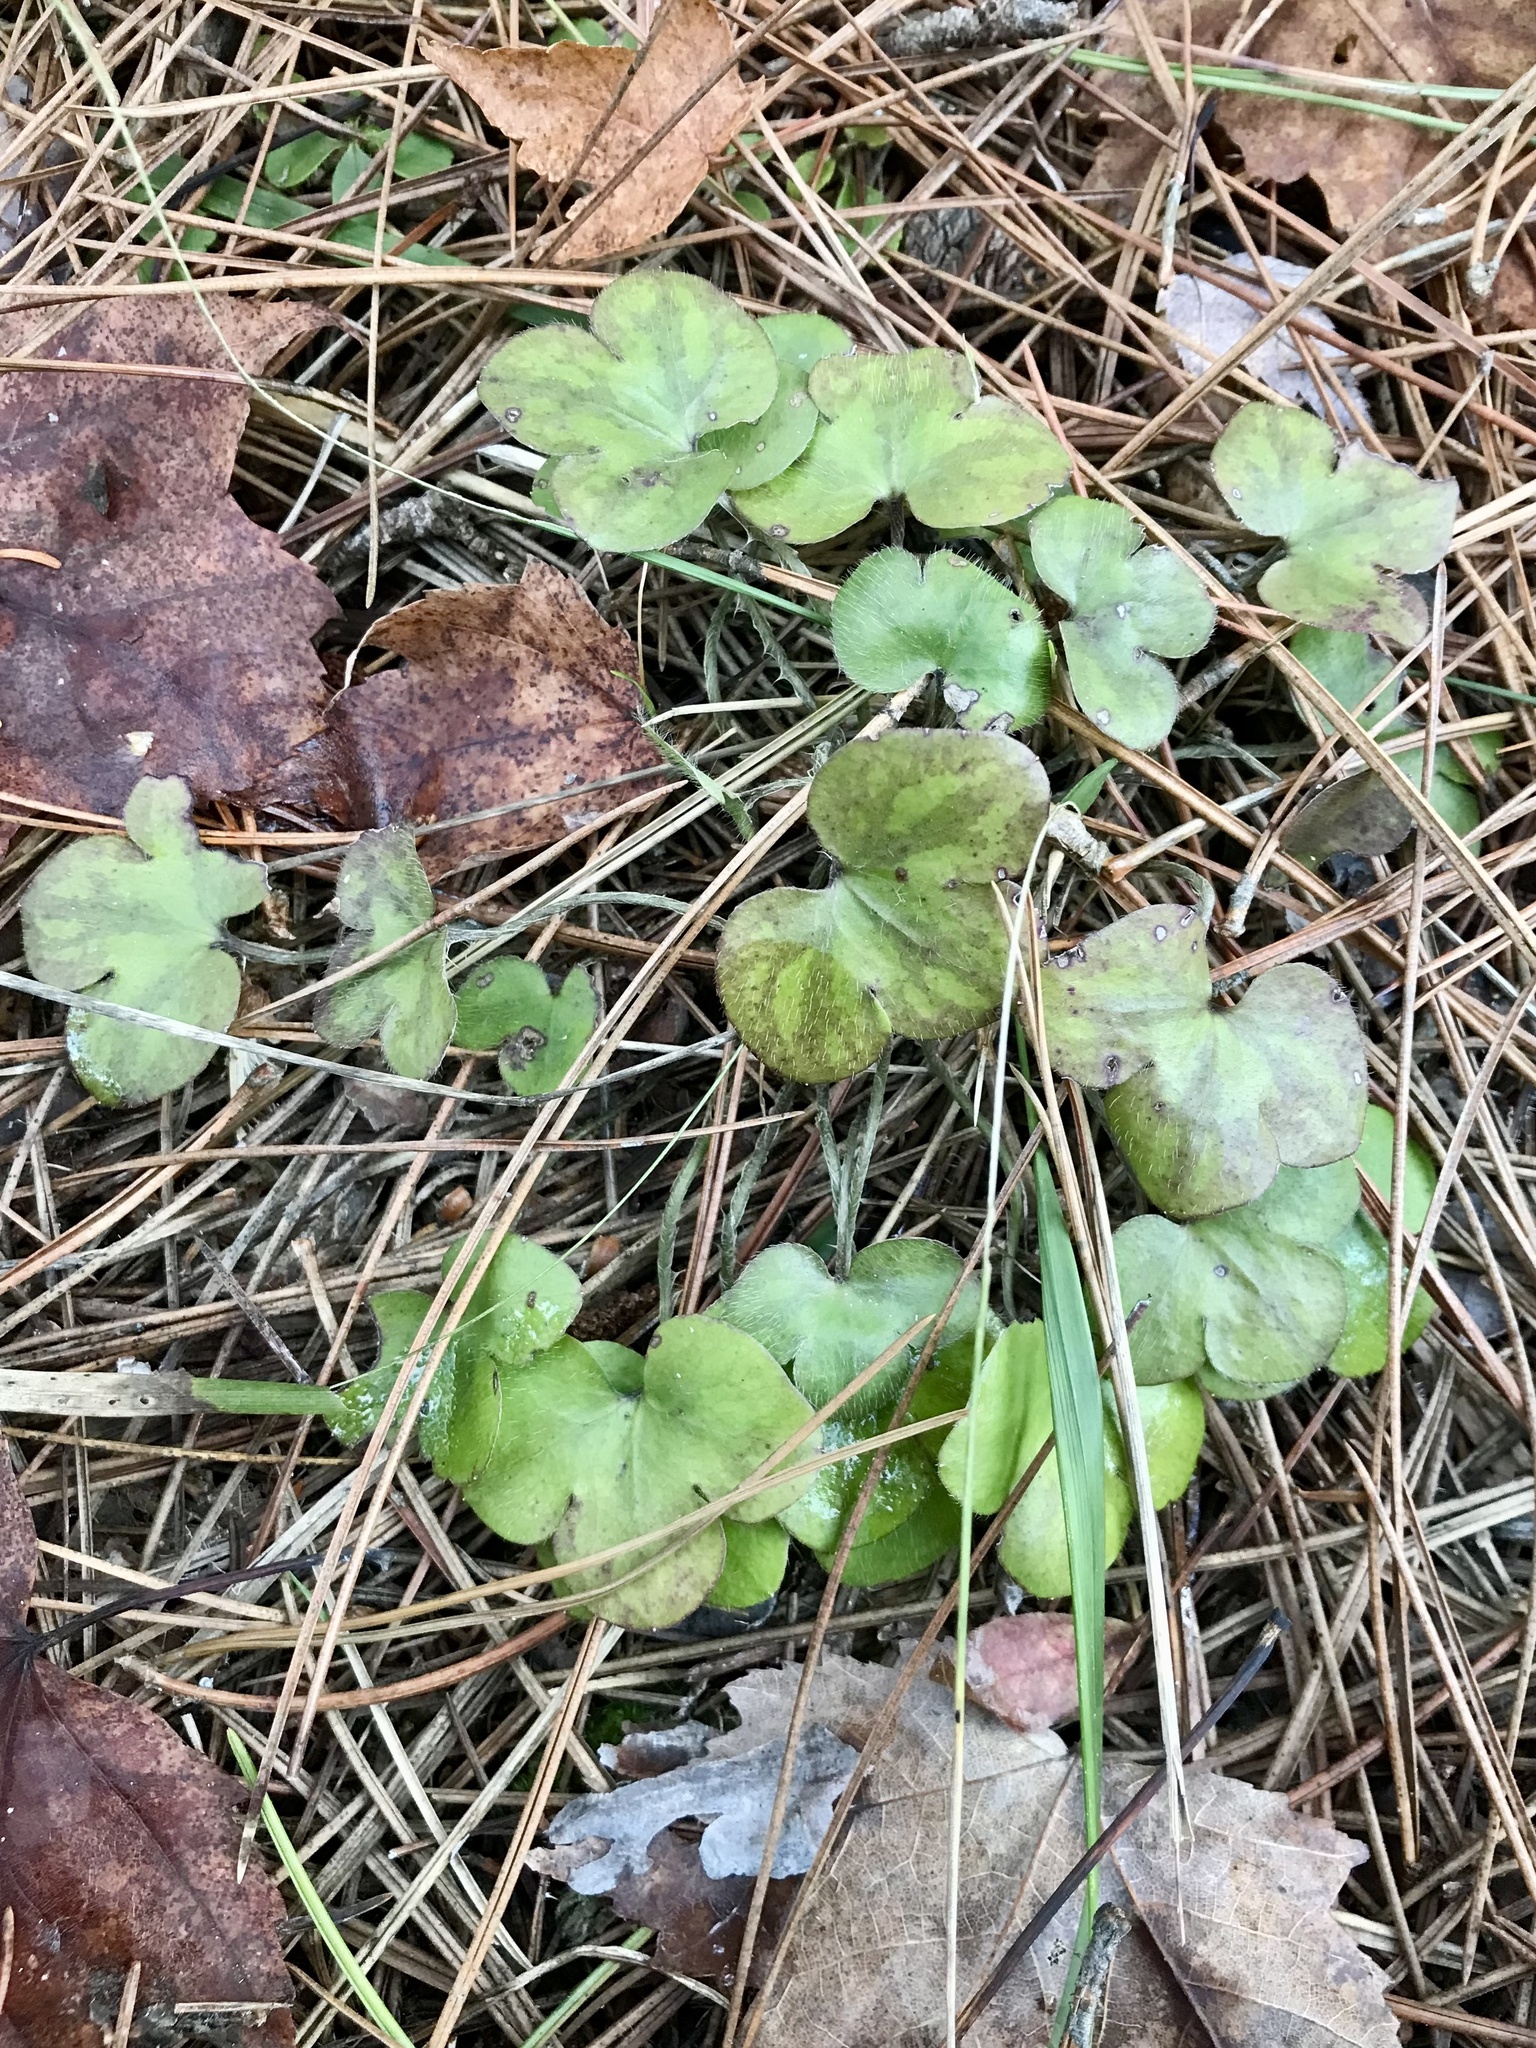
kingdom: Plantae
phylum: Tracheophyta
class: Magnoliopsida
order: Ranunculales
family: Ranunculaceae
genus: Hepatica
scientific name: Hepatica americana
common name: American hepatica
